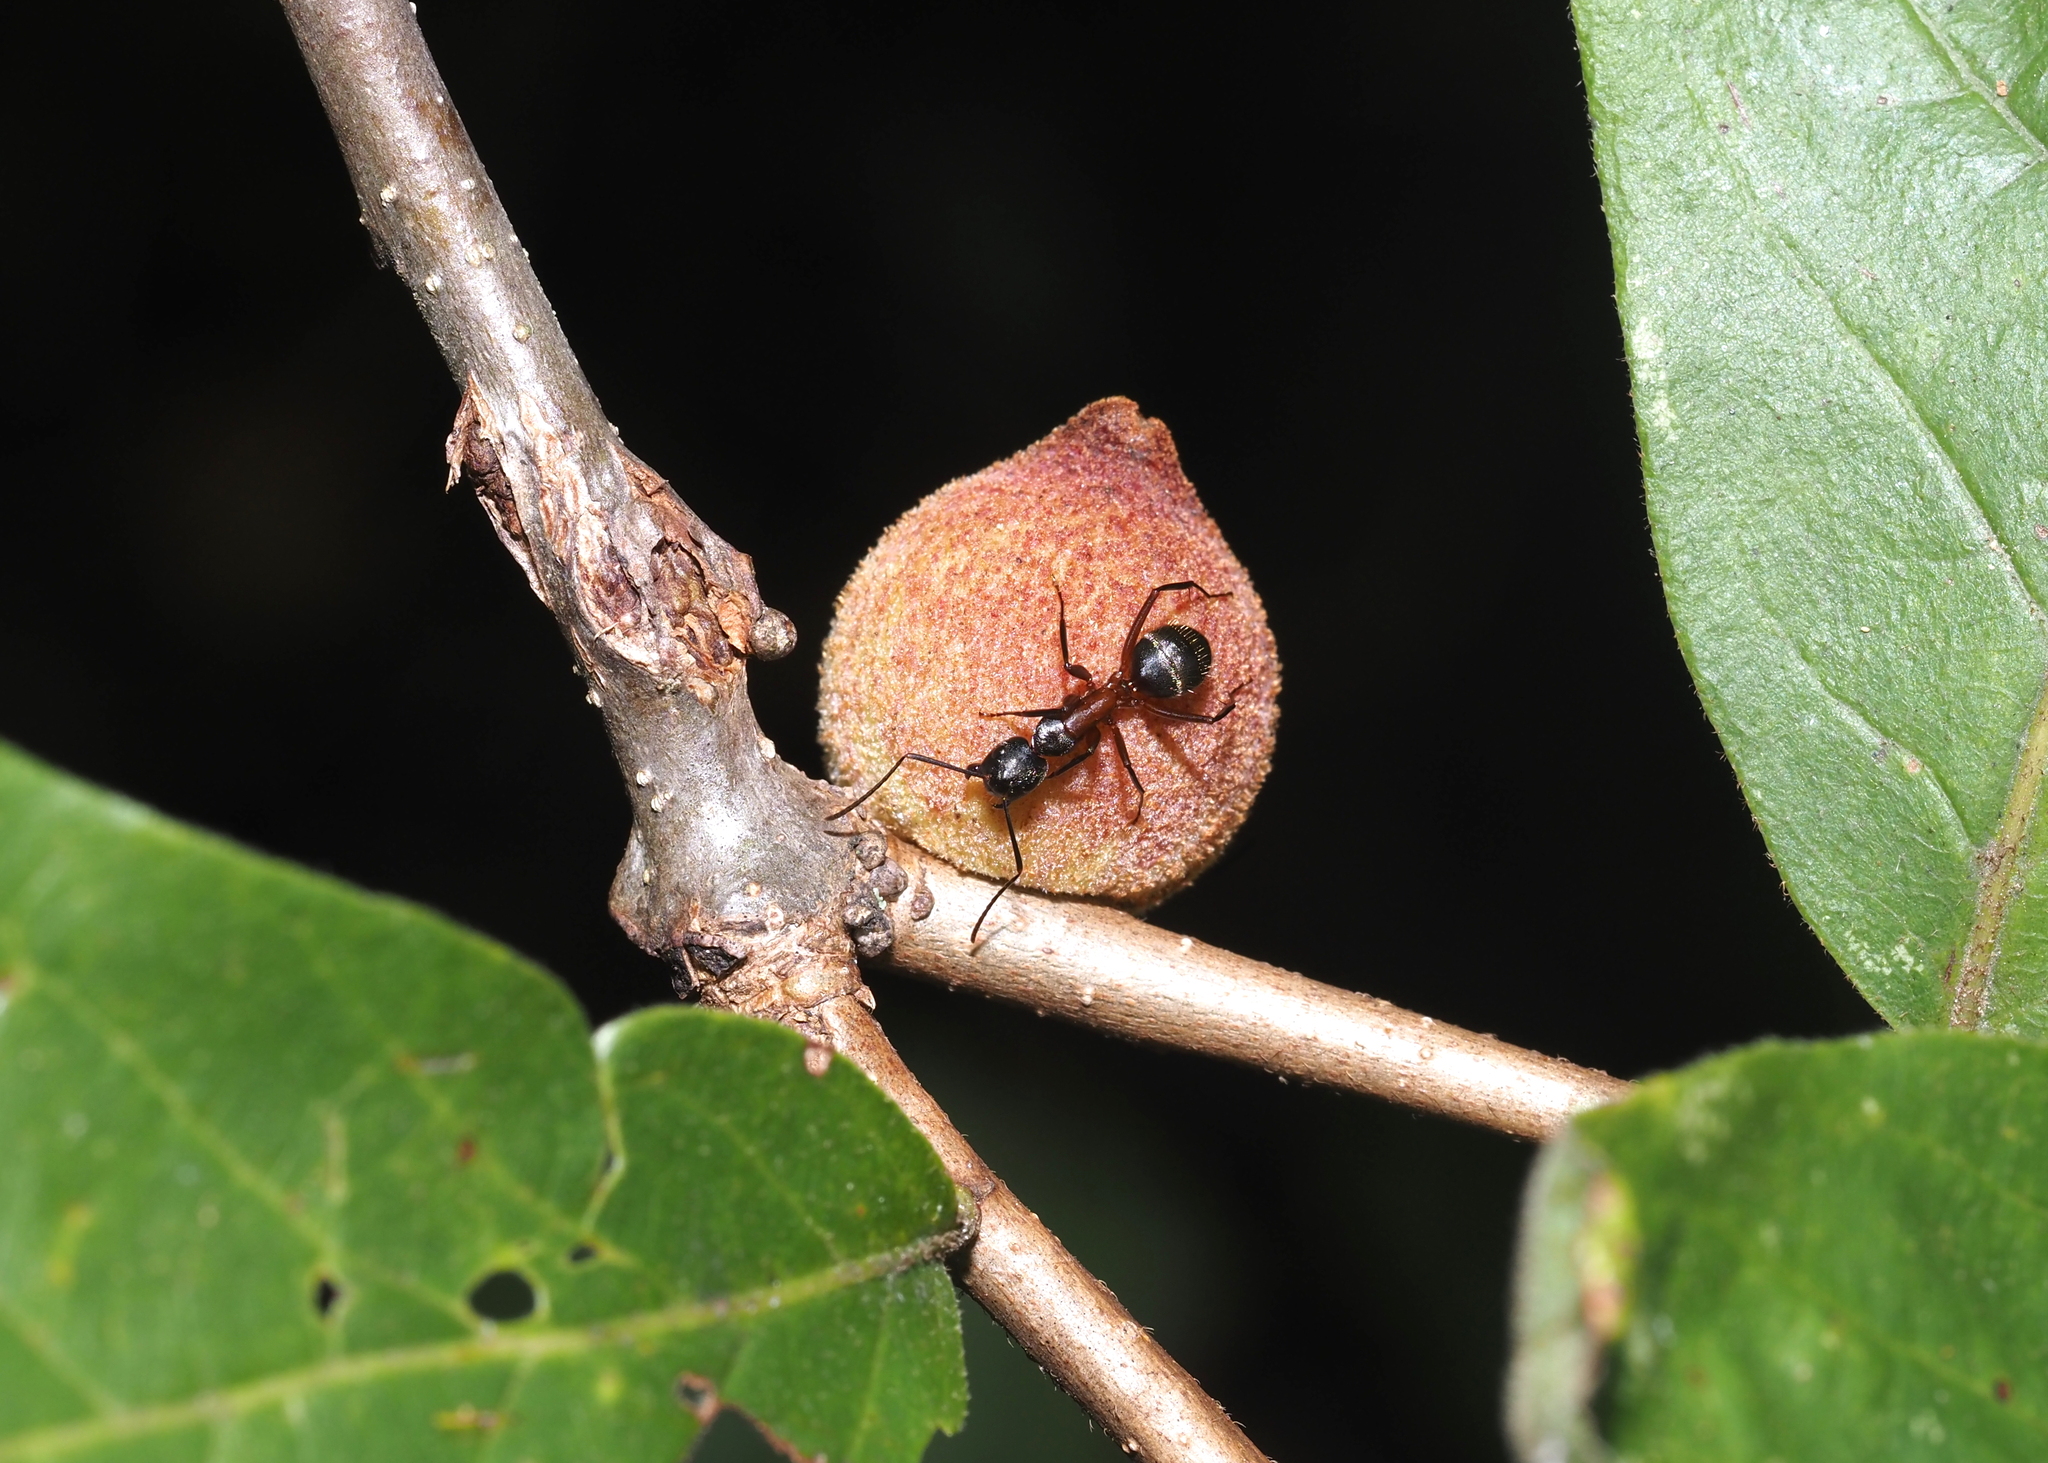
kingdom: Animalia
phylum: Arthropoda
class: Insecta
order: Hymenoptera
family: Formicidae
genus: Camponotus
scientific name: Camponotus chromaiodes
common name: Red carpenter ant
